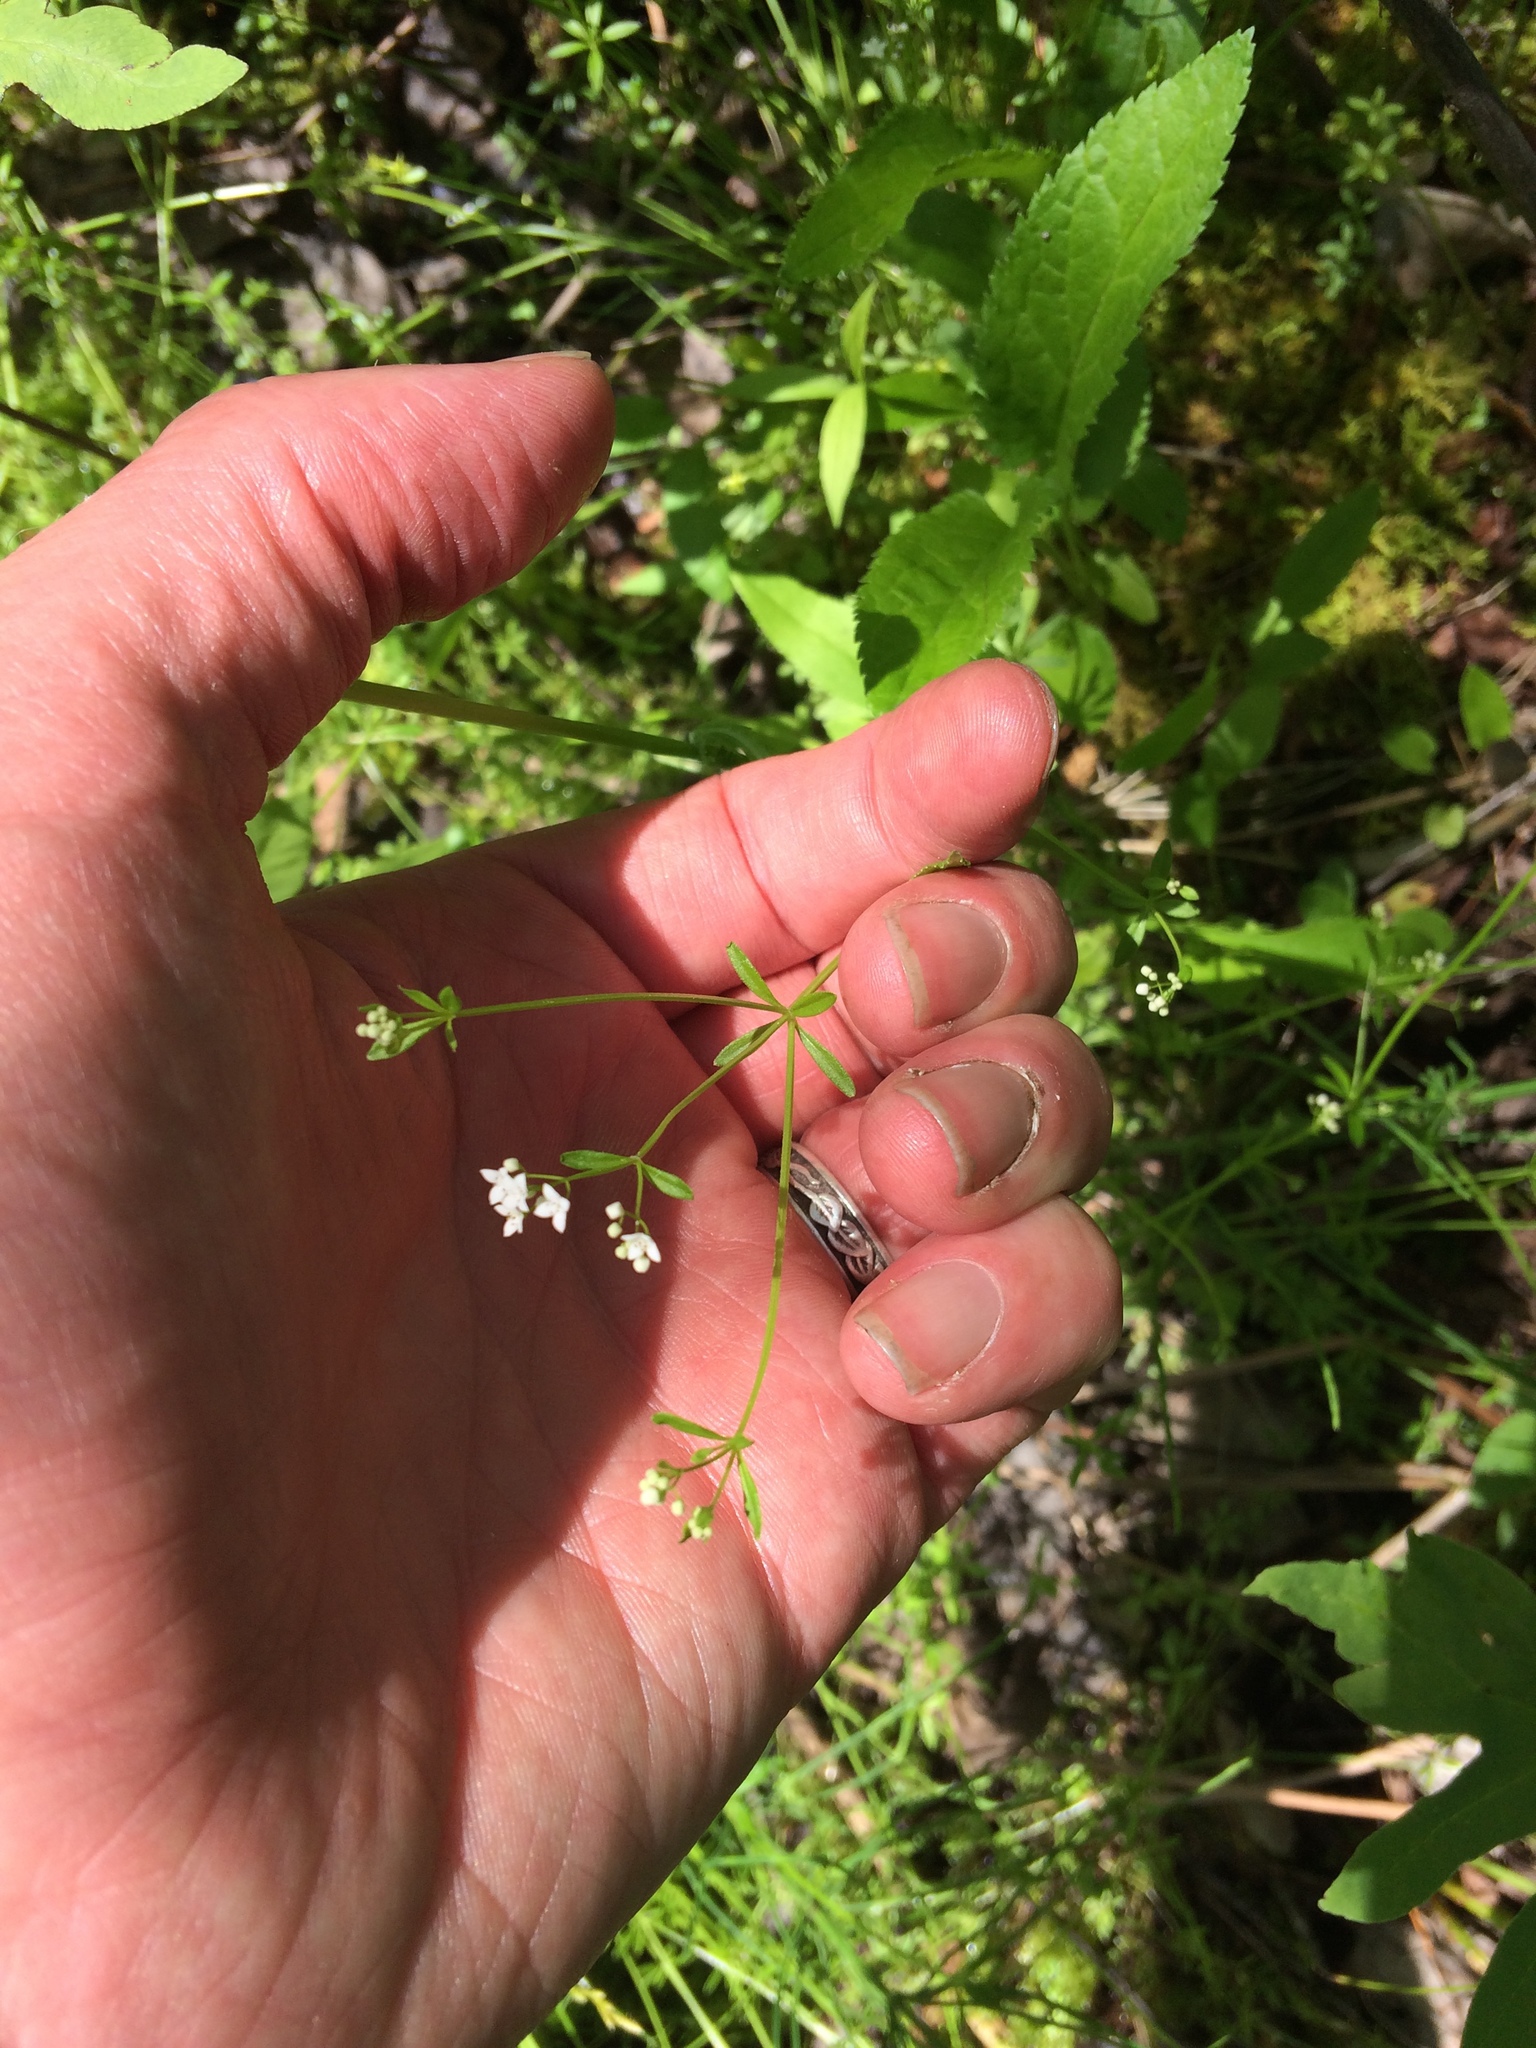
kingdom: Plantae
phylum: Tracheophyta
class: Magnoliopsida
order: Gentianales
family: Rubiaceae
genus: Galium
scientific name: Galium palustre
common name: Common marsh-bedstraw
